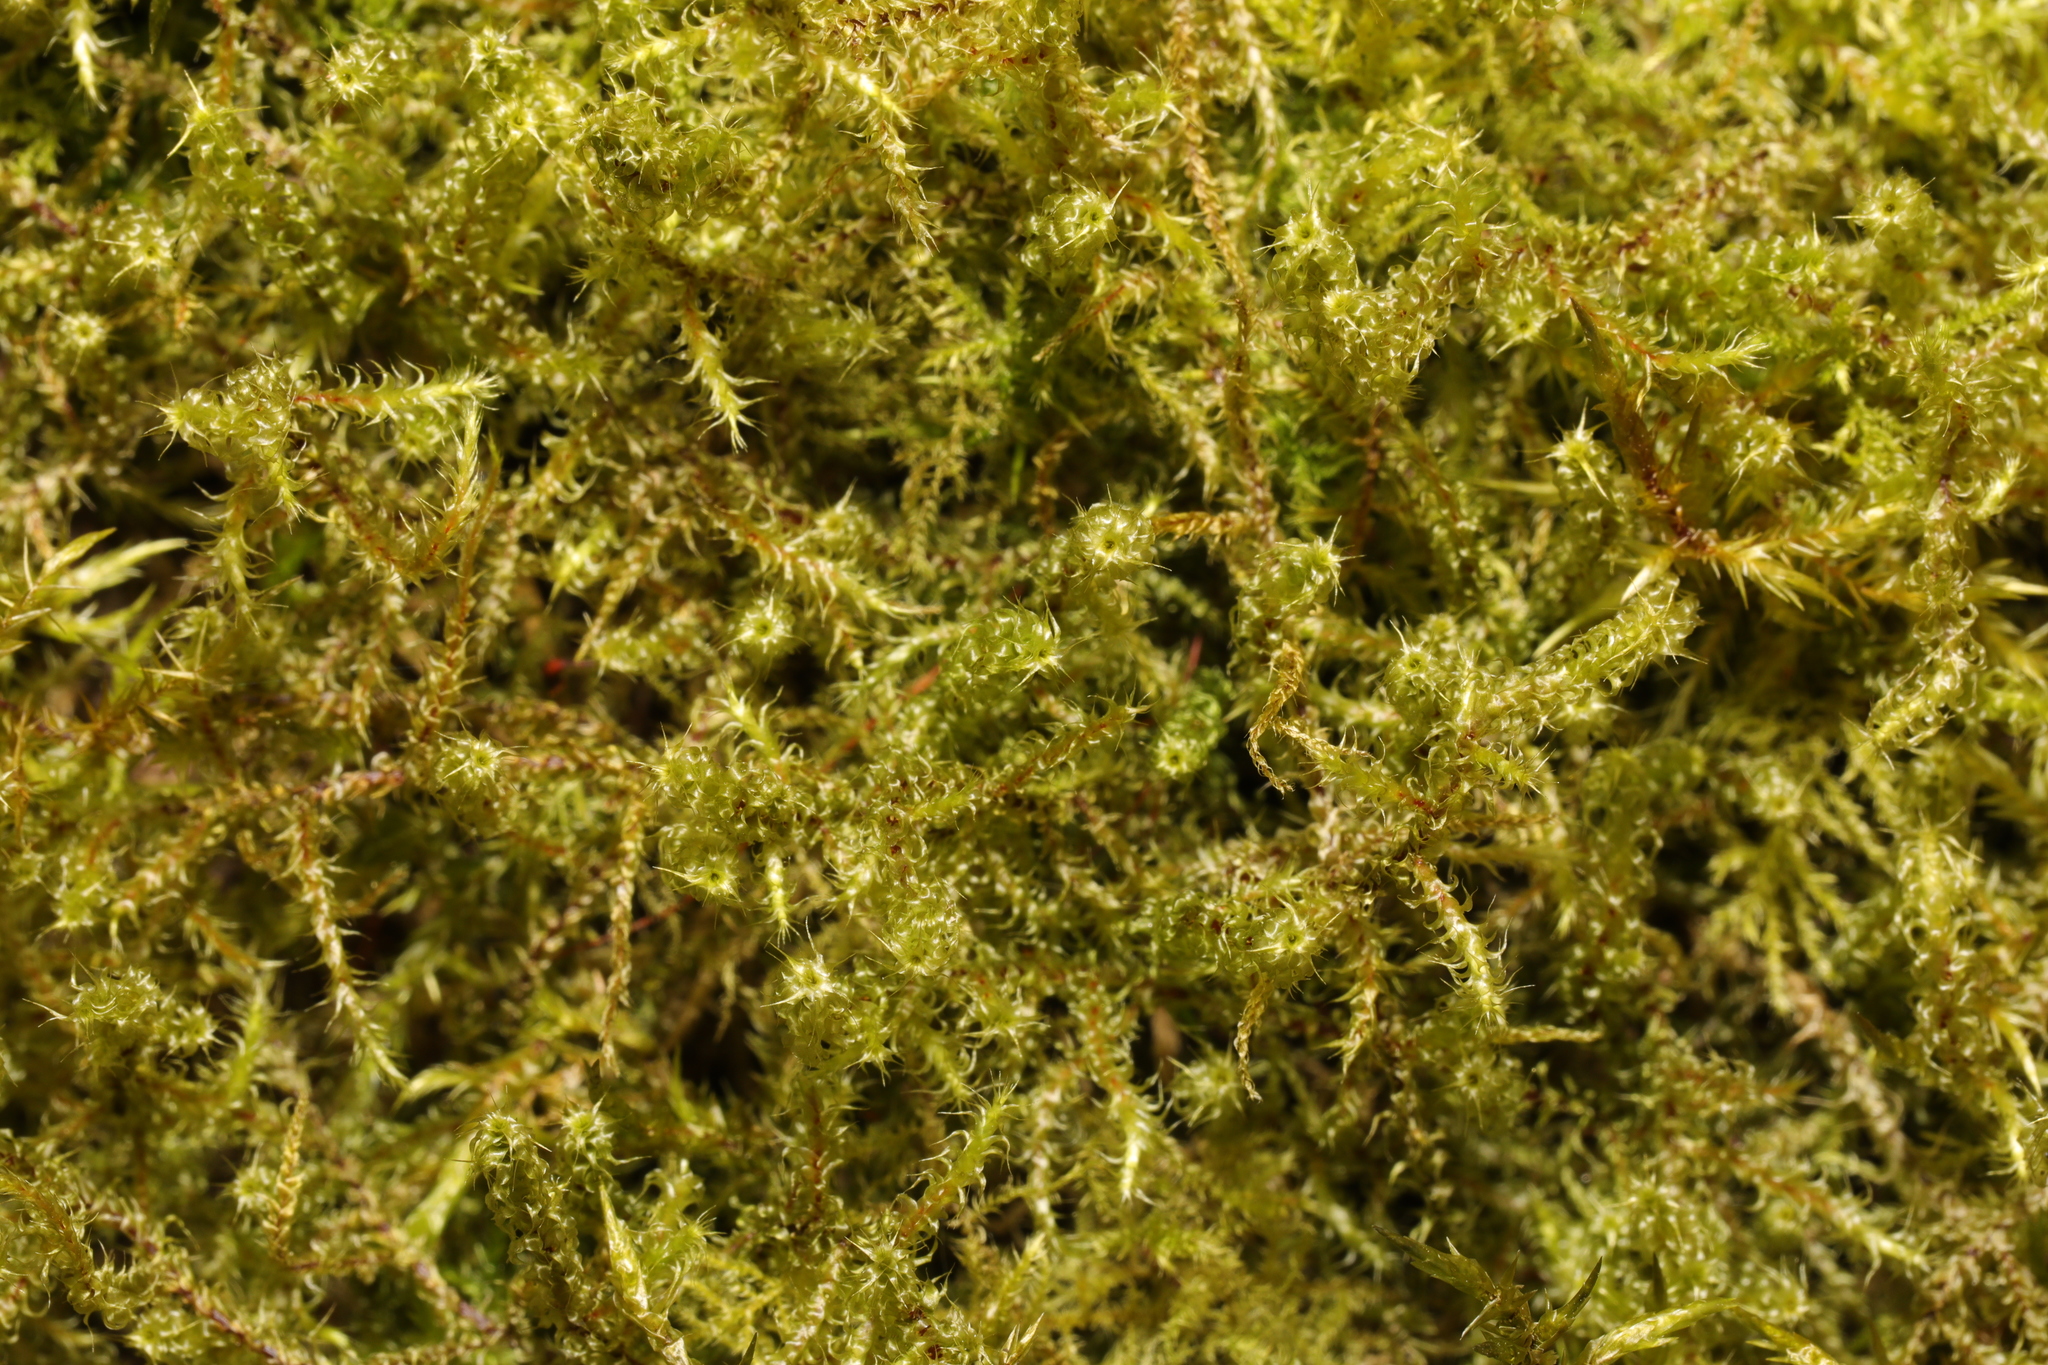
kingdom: Plantae
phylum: Bryophyta
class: Bryopsida
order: Hypnales
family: Hylocomiaceae
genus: Rhytidiadelphus
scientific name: Rhytidiadelphus squarrosus
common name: Springy turf-moss
